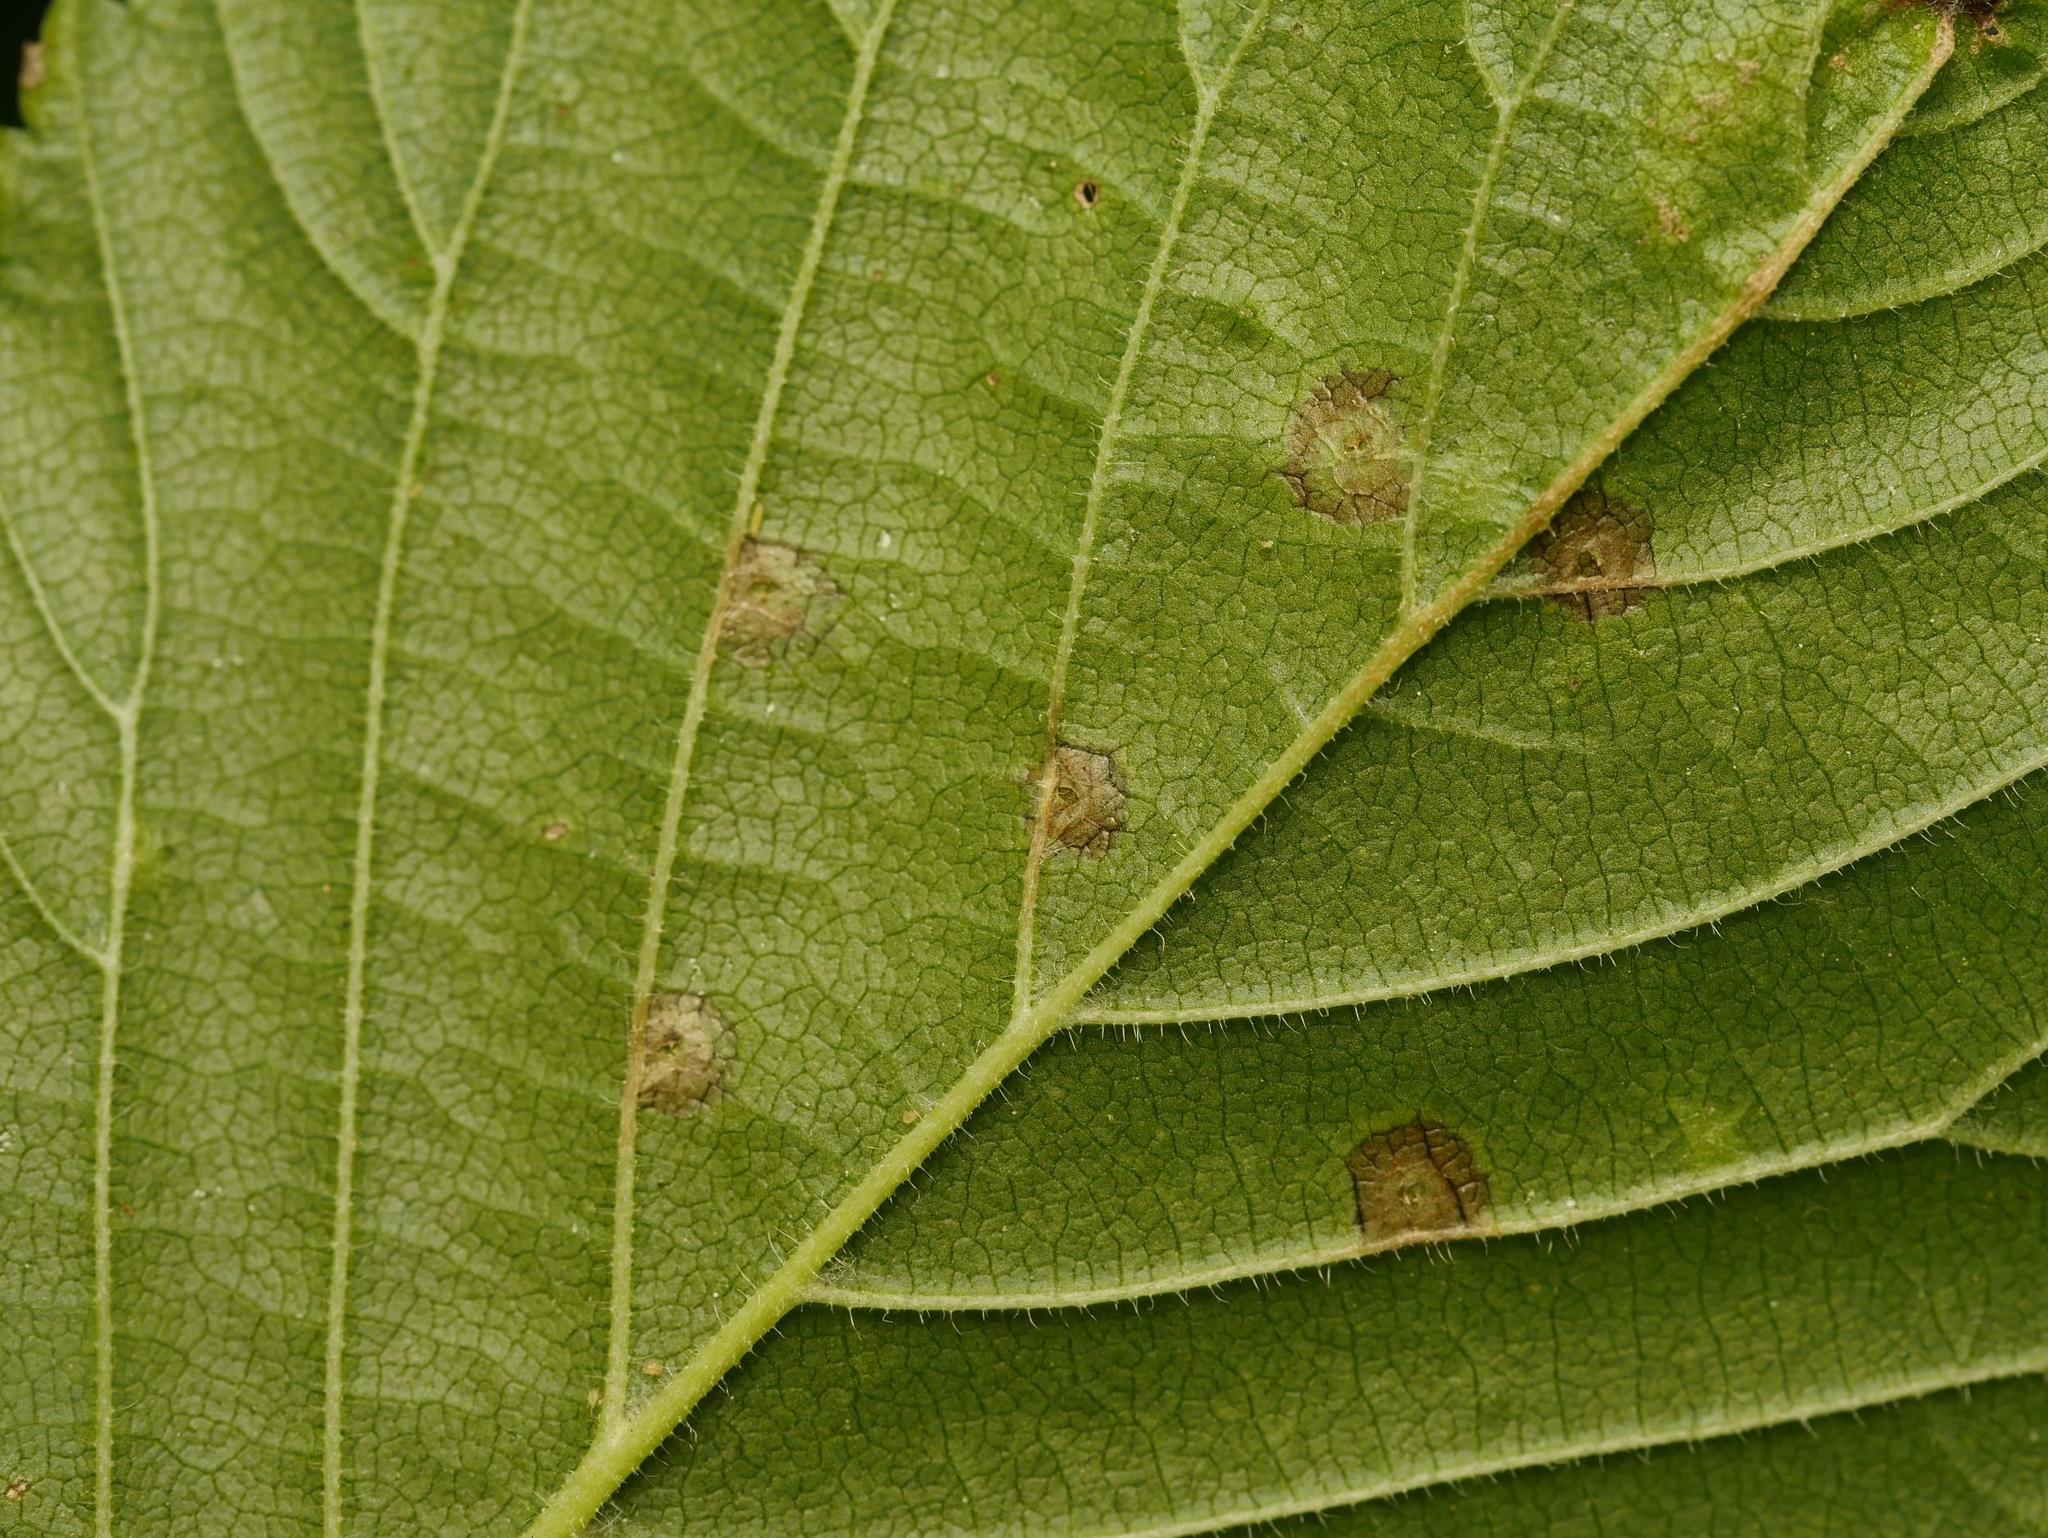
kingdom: Animalia
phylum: Arthropoda
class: Insecta
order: Diptera
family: Cecidomyiidae
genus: Physemocecis
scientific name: Physemocecis ulmi
